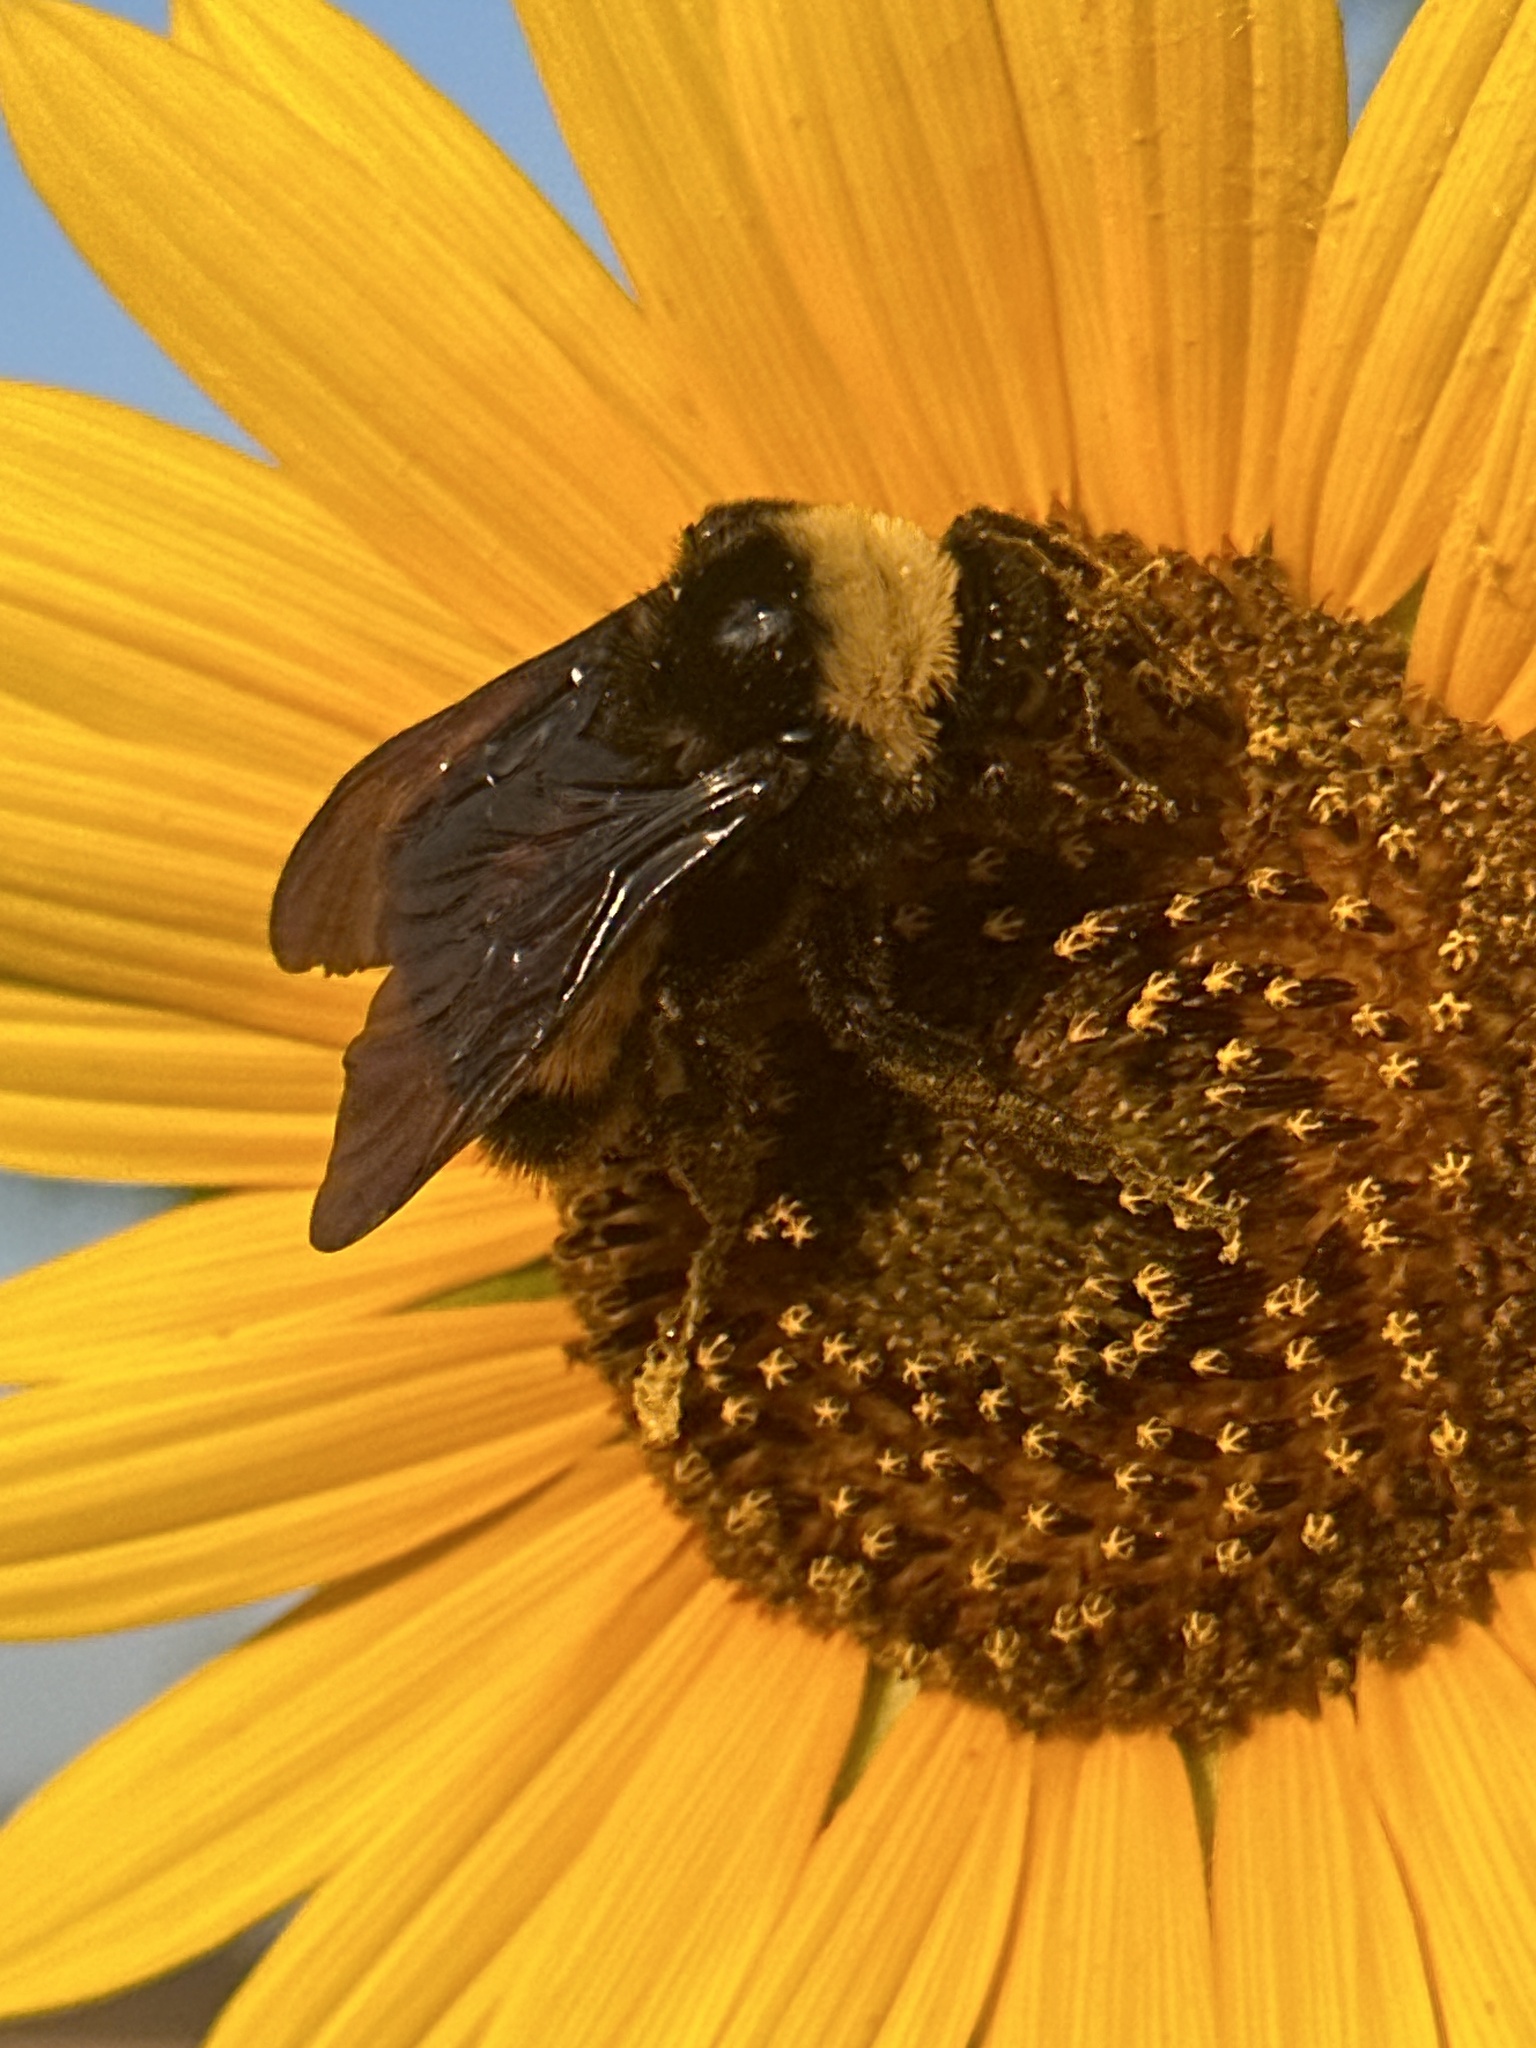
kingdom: Animalia
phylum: Arthropoda
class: Insecta
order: Hymenoptera
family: Apidae
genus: Bombus
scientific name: Bombus pensylvanicus
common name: Bumble bee
